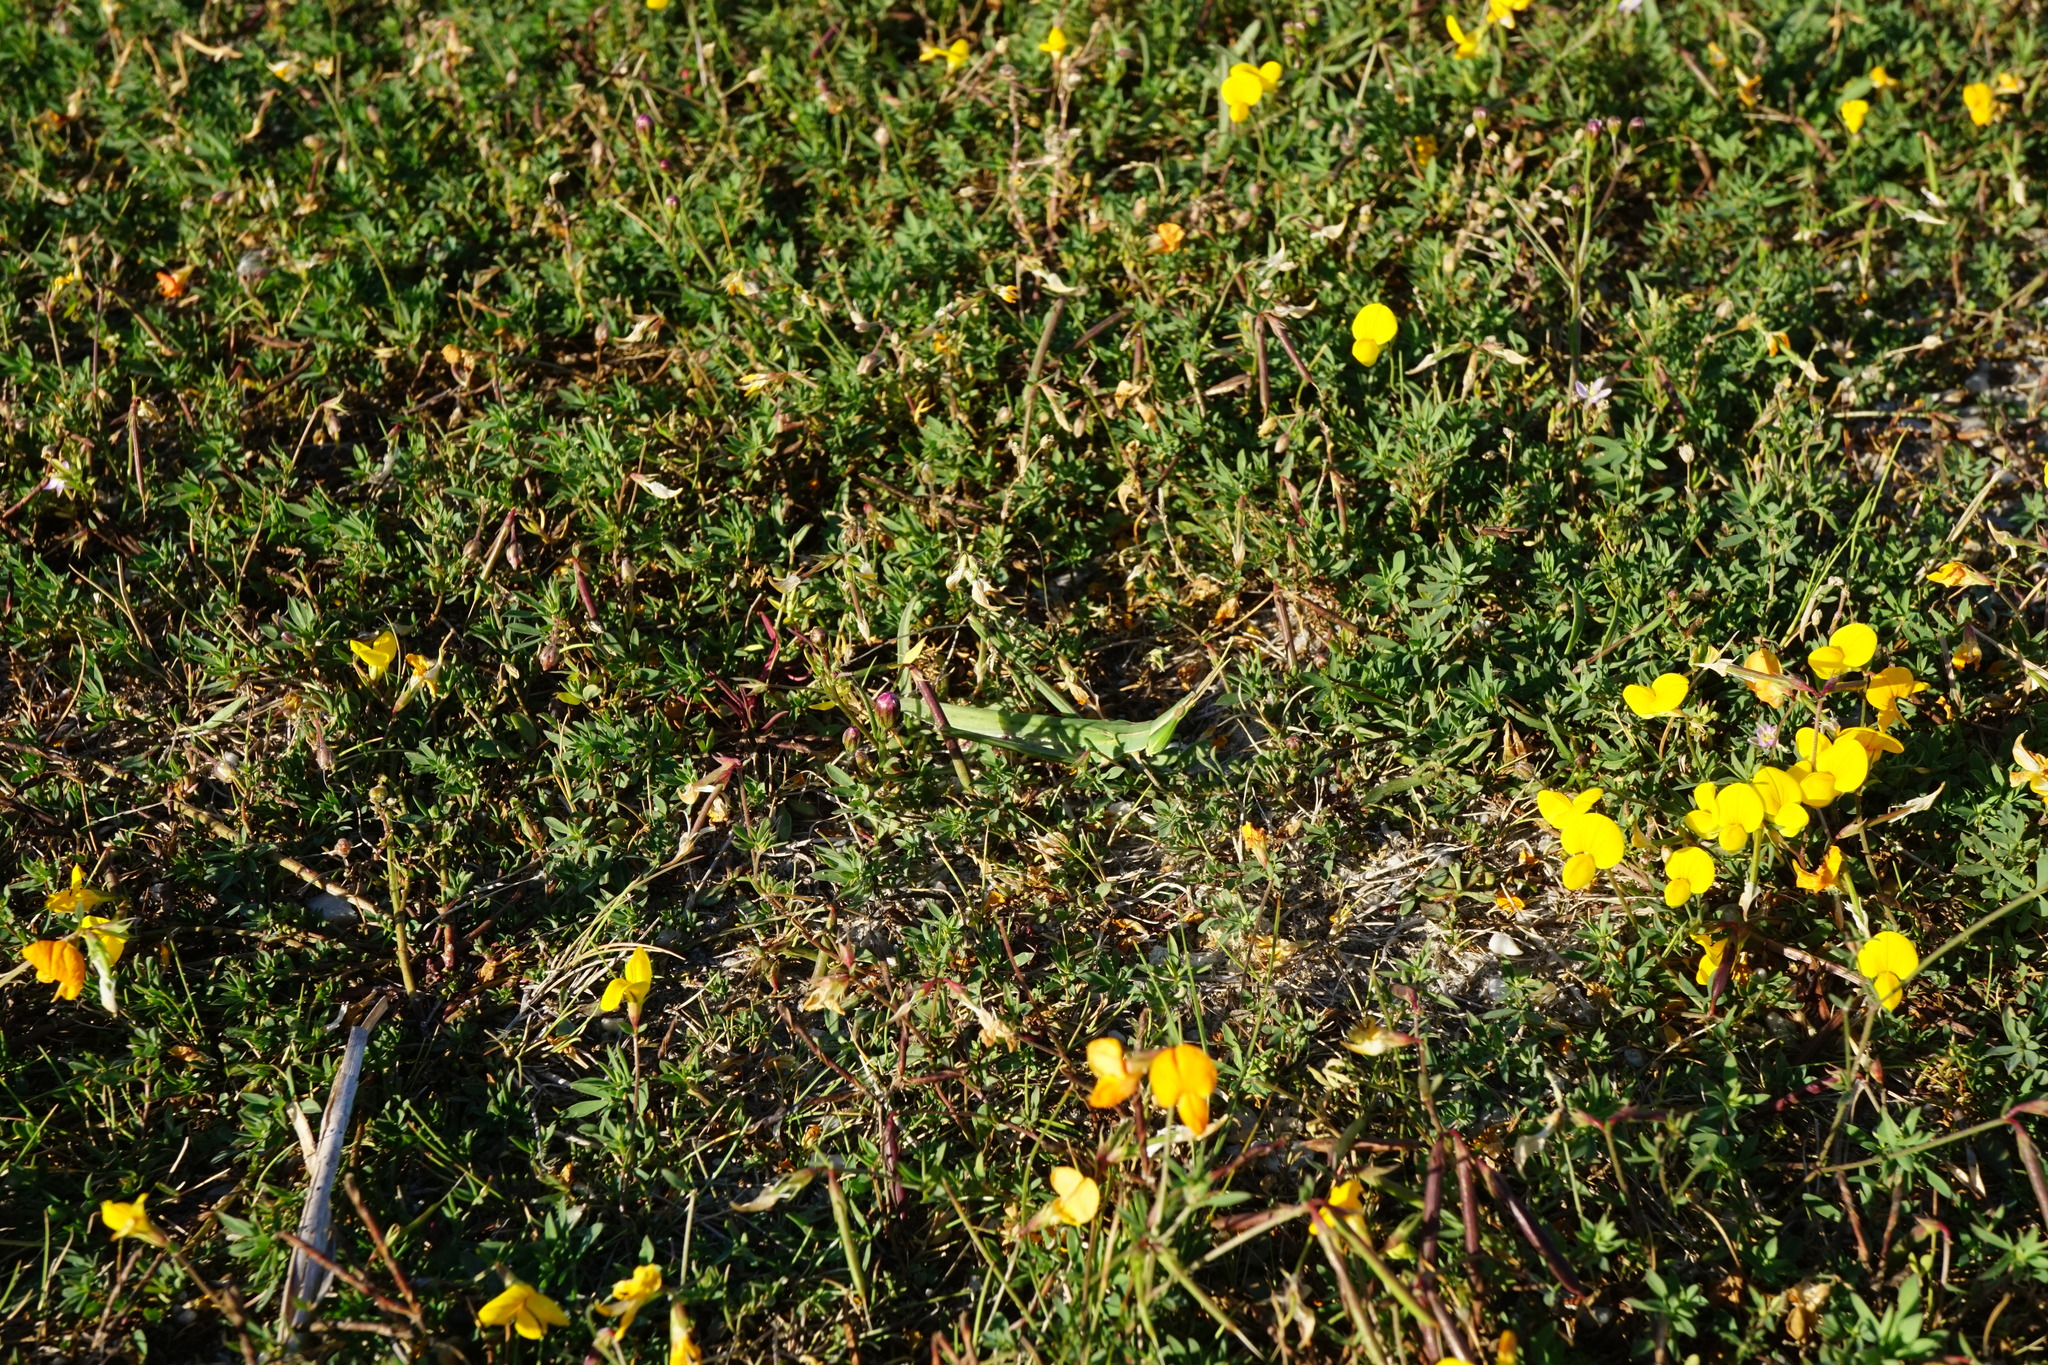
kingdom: Animalia
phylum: Arthropoda
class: Insecta
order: Orthoptera
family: Acrididae
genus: Acrida
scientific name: Acrida ungarica
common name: Common cone-headed grasshopper
